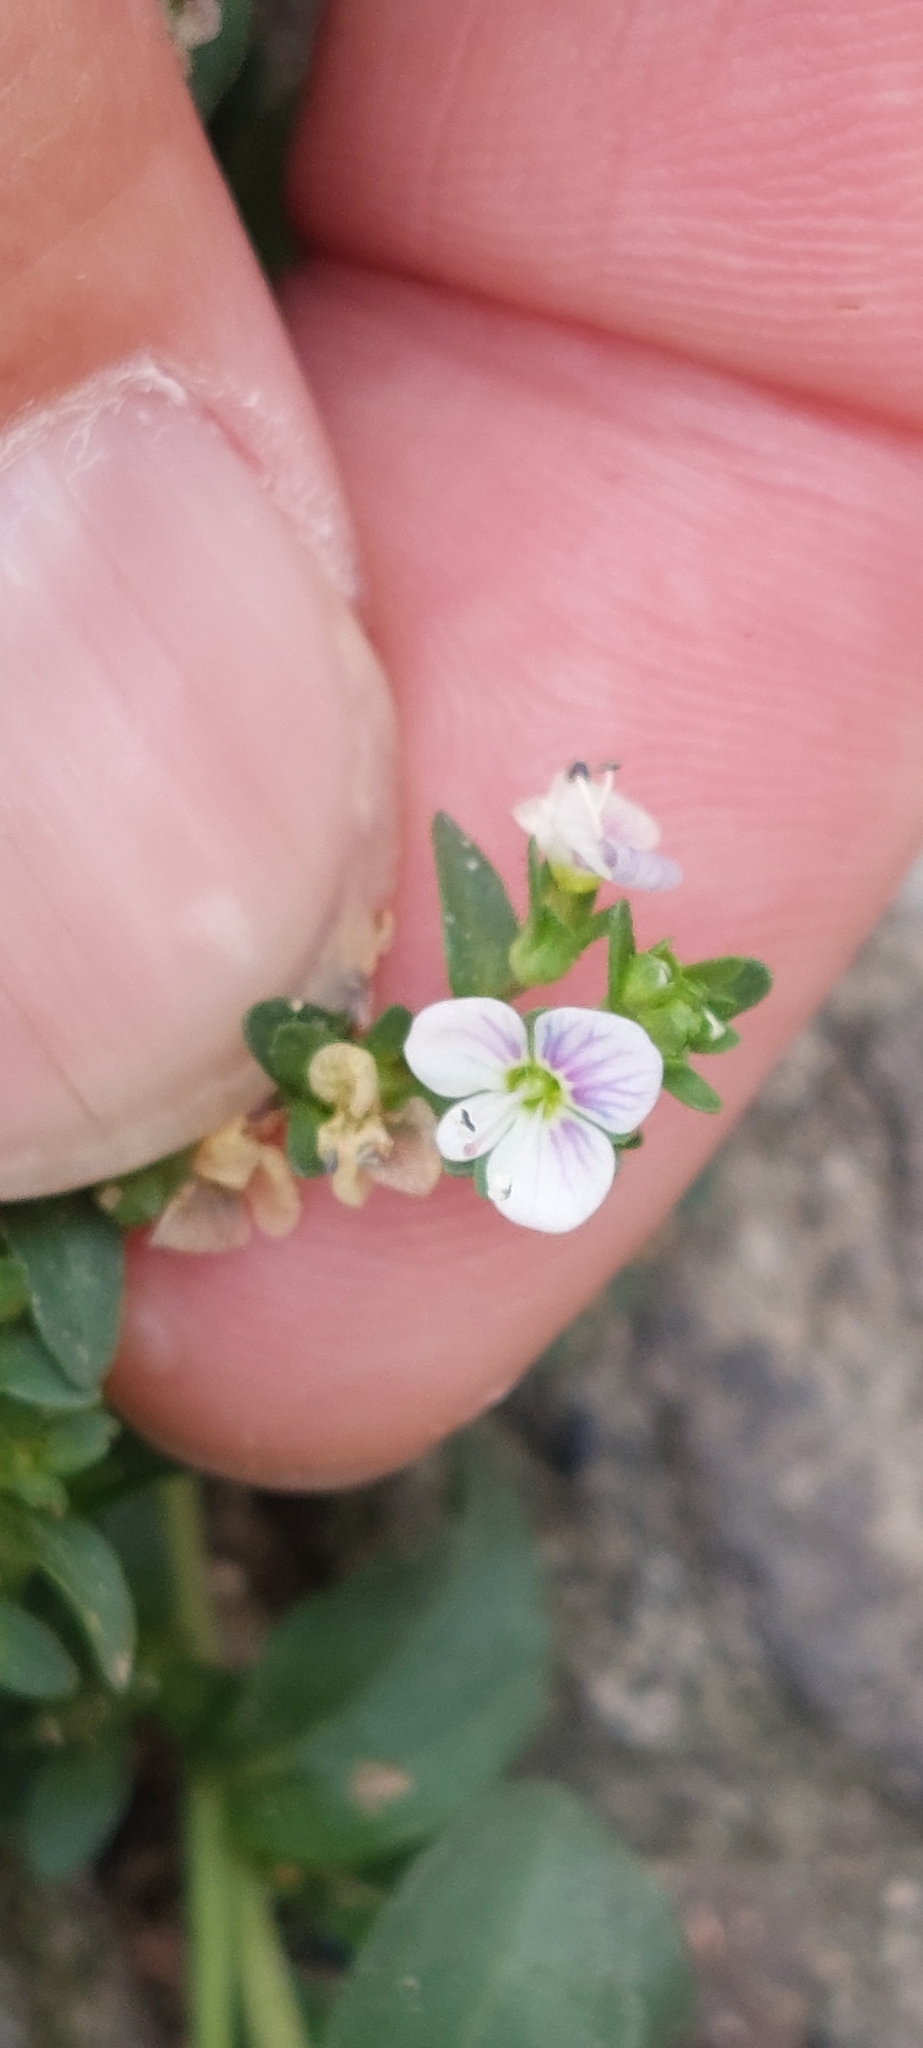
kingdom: Plantae
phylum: Tracheophyta
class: Magnoliopsida
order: Lamiales
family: Plantaginaceae
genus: Veronica
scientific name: Veronica serpyllifolia
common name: Thyme-leaved speedwell
